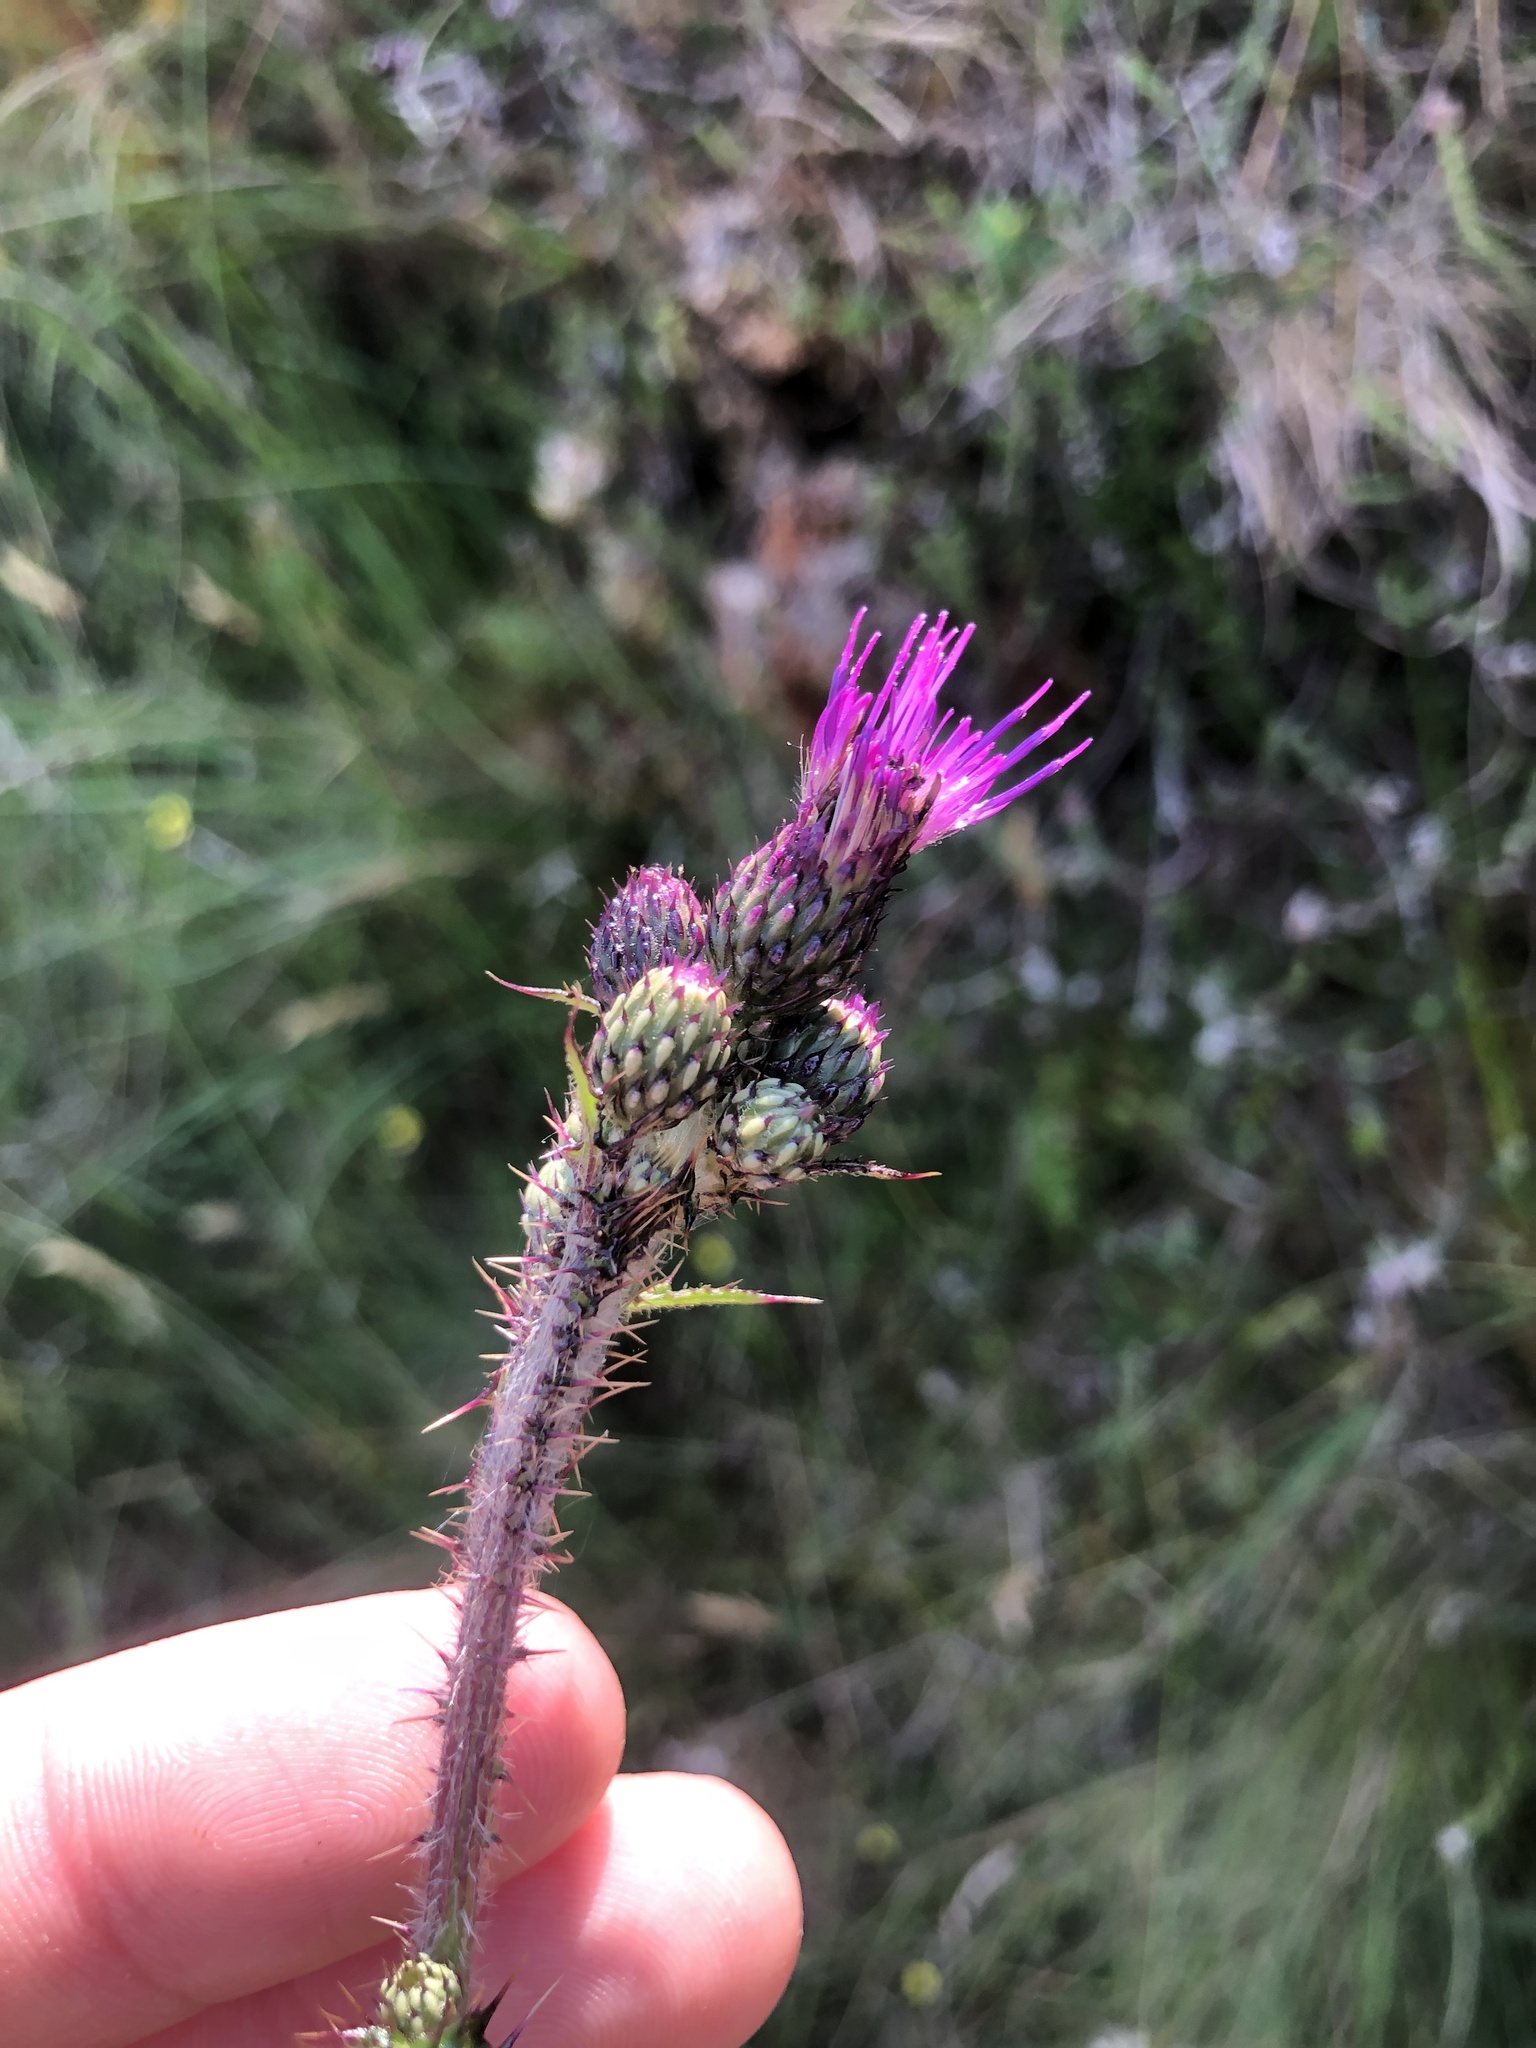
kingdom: Plantae
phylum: Tracheophyta
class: Magnoliopsida
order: Asterales
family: Asteraceae
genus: Cirsium
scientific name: Cirsium palustre
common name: Marsh thistle
